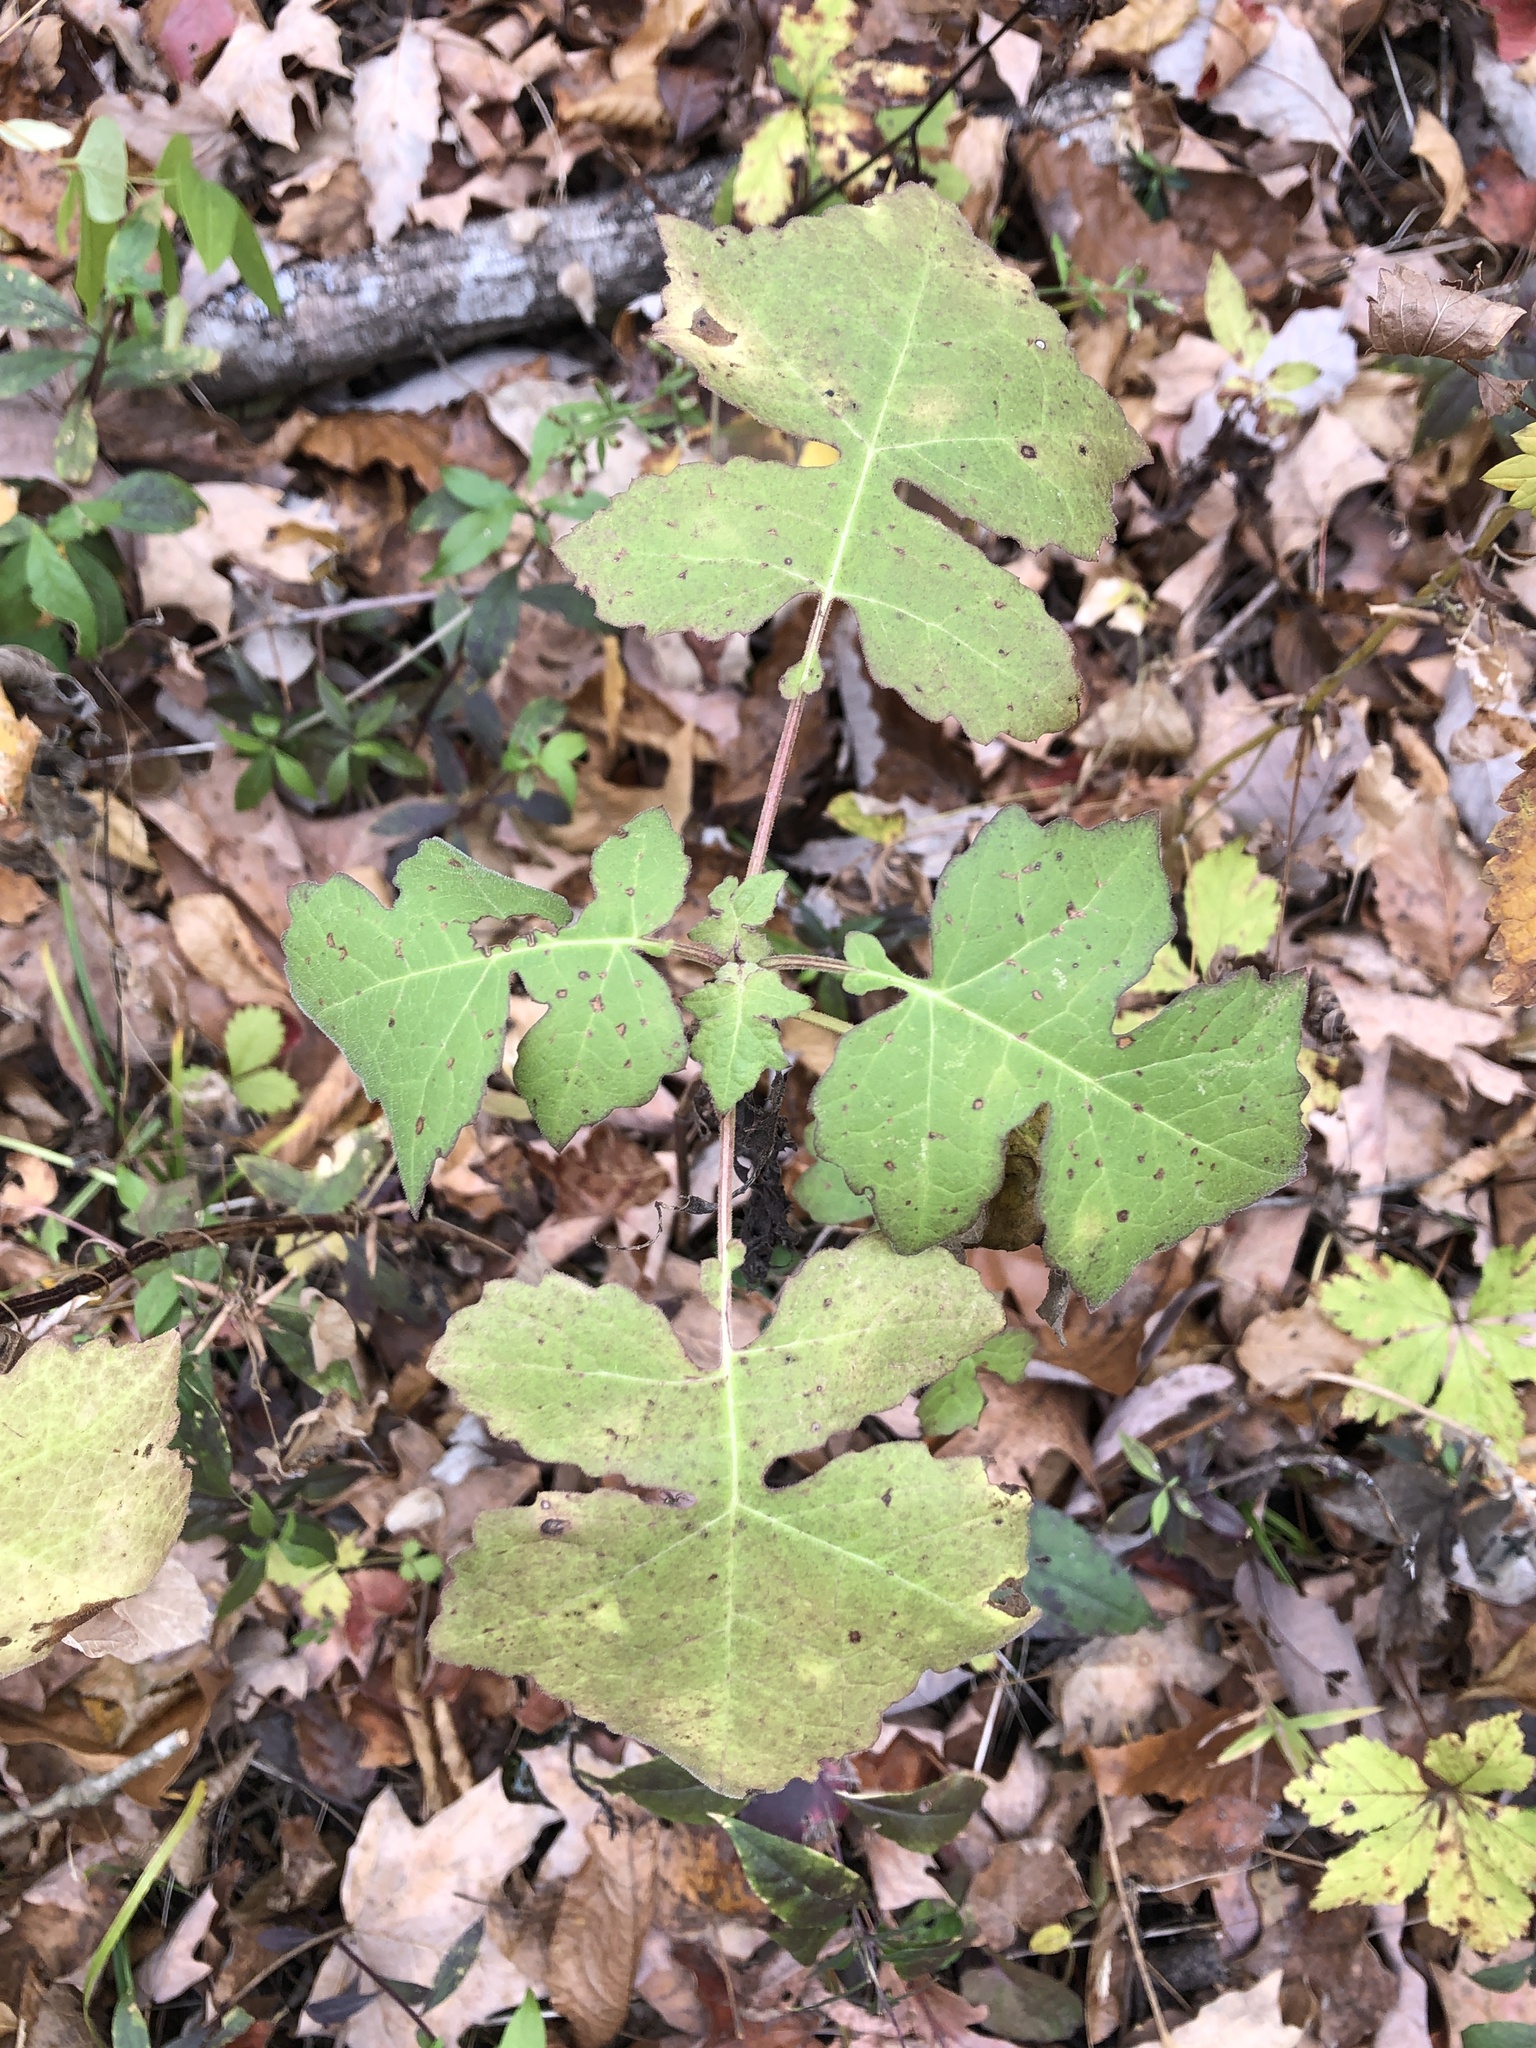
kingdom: Plantae
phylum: Tracheophyta
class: Magnoliopsida
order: Asterales
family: Asteraceae
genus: Polymnia
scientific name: Polymnia canadensis
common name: Pale-flowered leafcup
